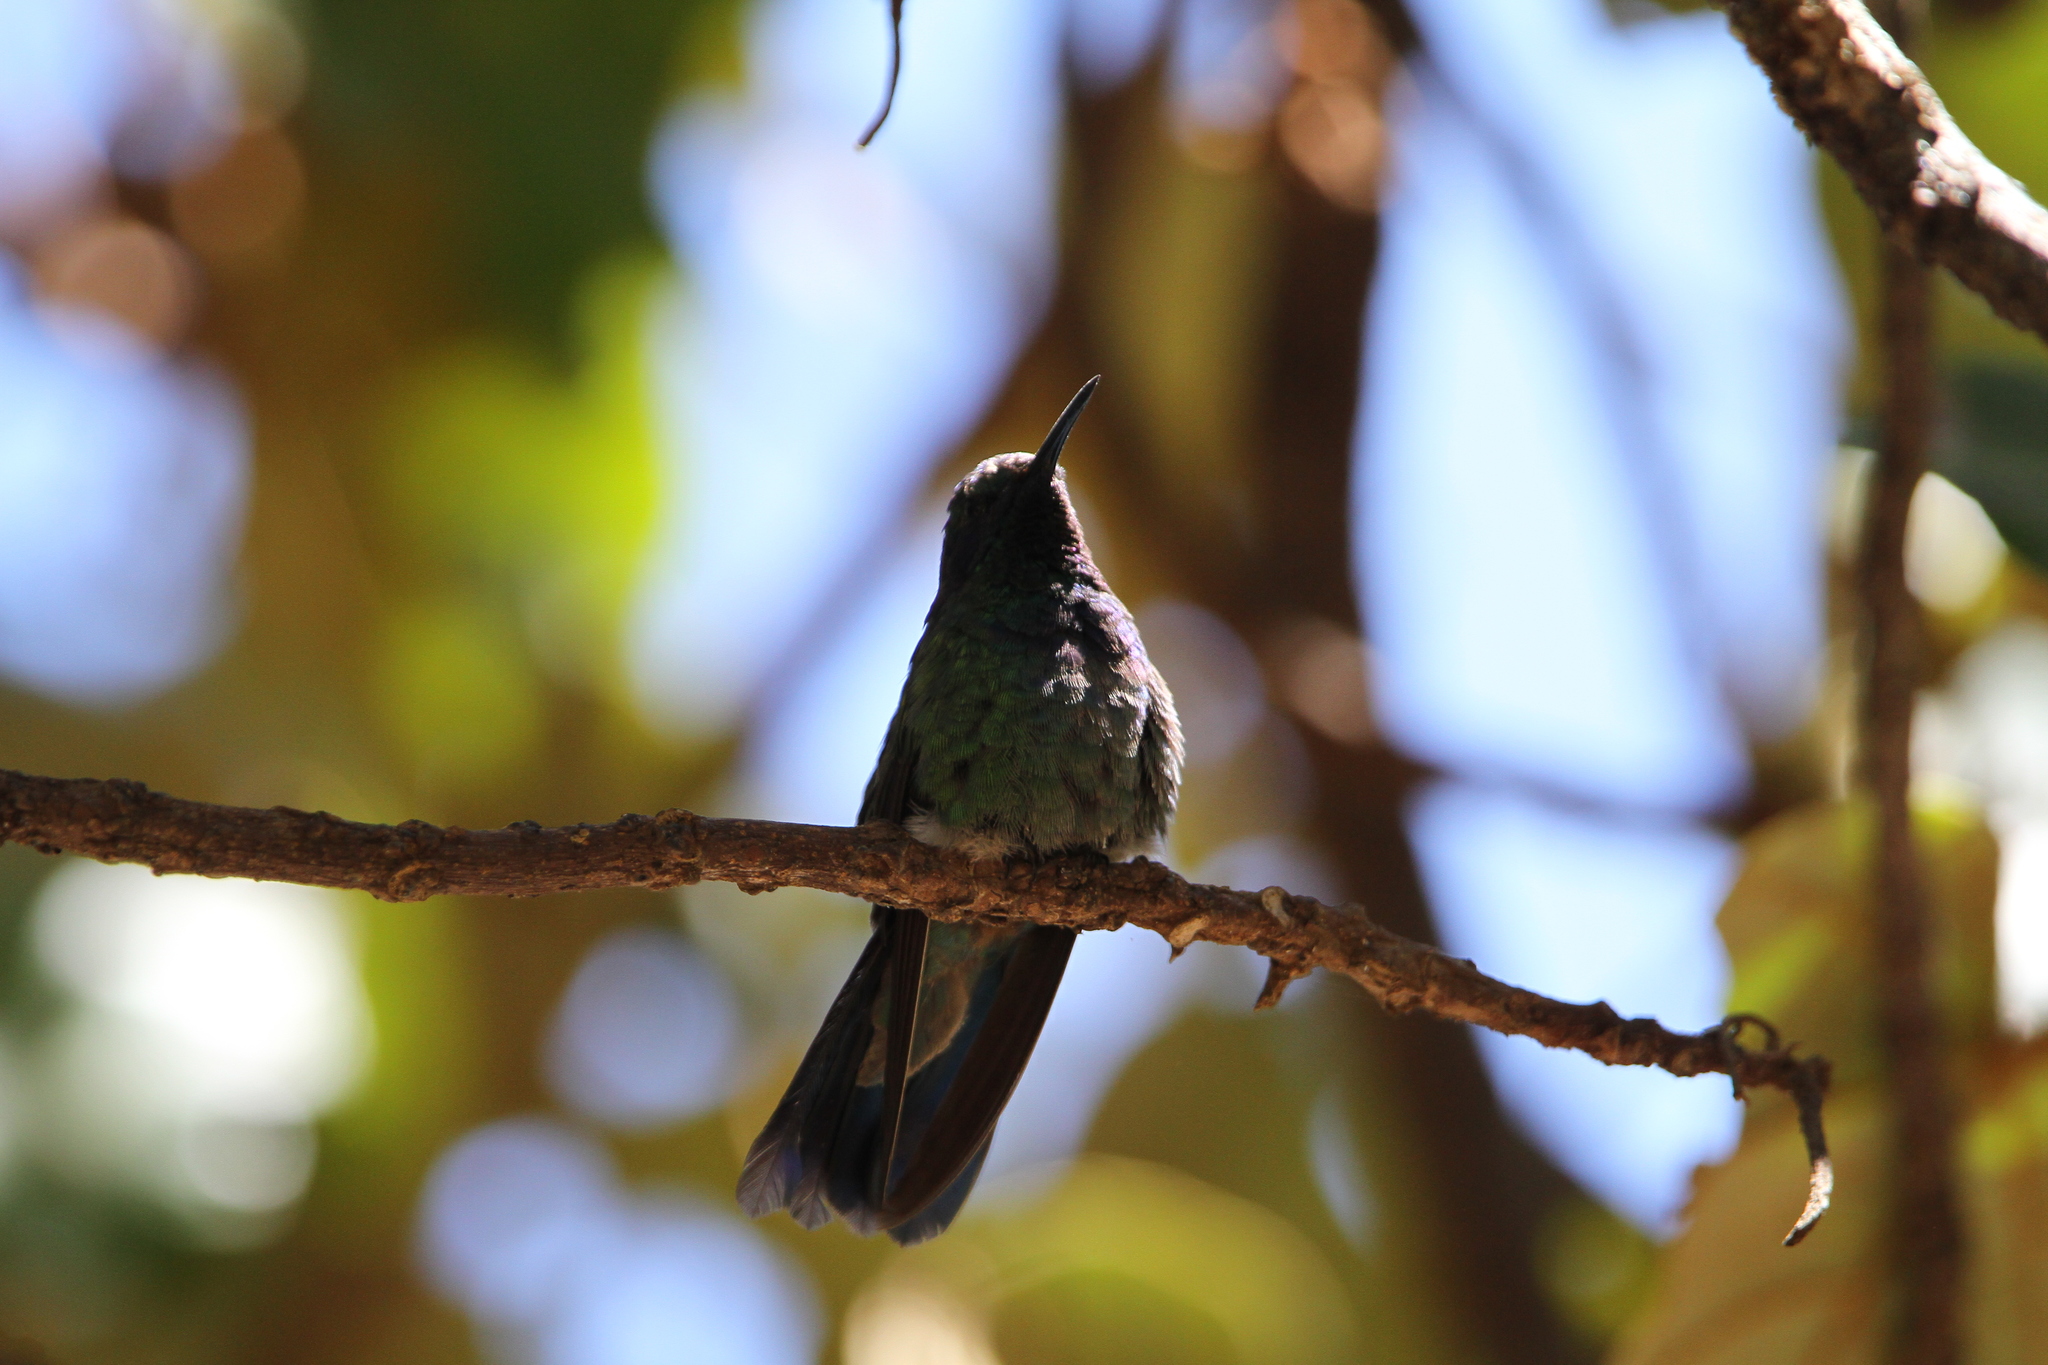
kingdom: Animalia
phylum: Chordata
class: Aves
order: Apodiformes
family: Trochilidae
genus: Colibri
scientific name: Colibri thalassinus
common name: Green violetear
